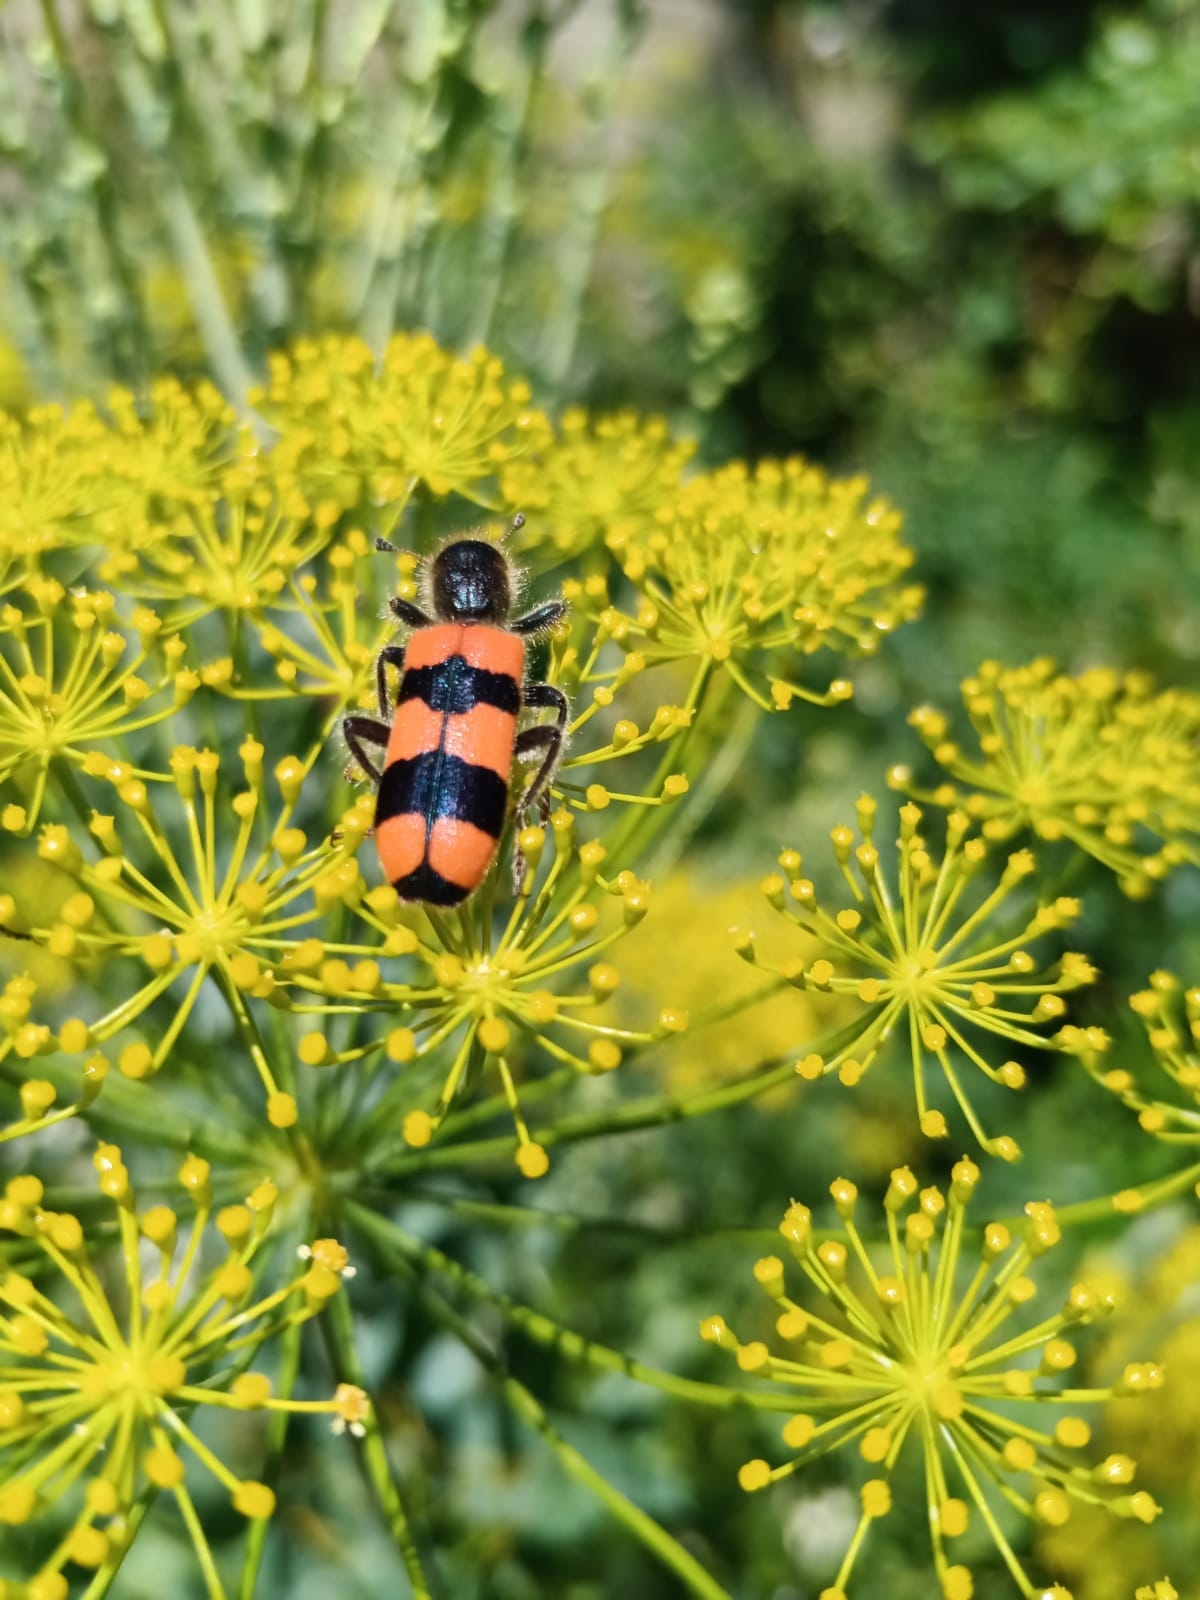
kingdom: Animalia
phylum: Arthropoda
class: Insecta
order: Coleoptera
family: Cleridae
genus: Trichodes
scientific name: Trichodes crabroniformis
